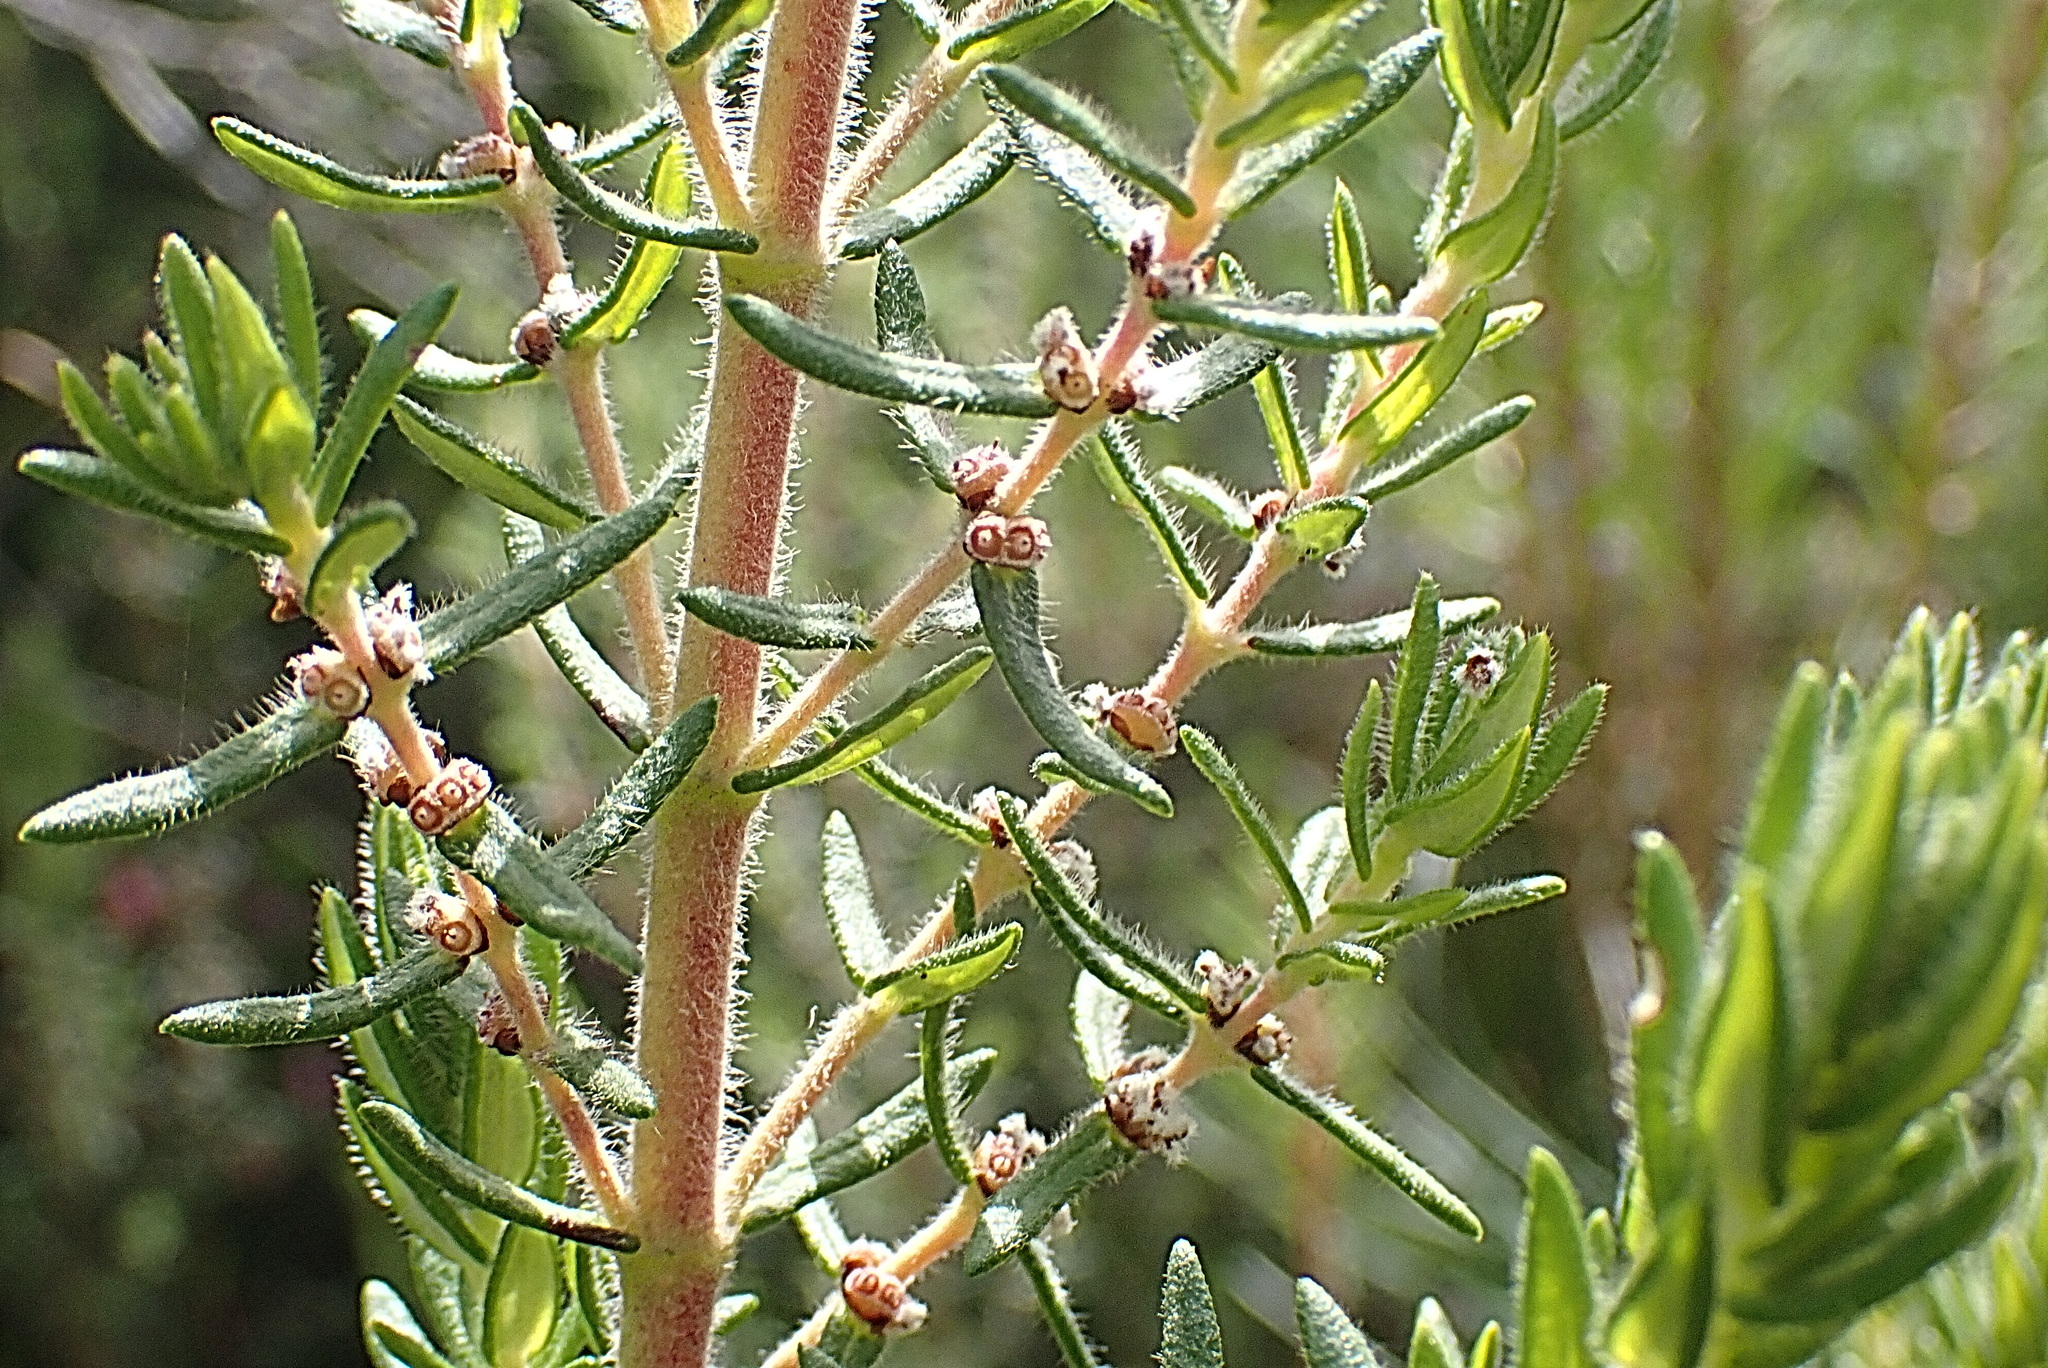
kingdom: Plantae
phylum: Tracheophyta
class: Magnoliopsida
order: Cornales
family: Grubbiaceae
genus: Grubbia
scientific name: Grubbia rosmarinifolia
